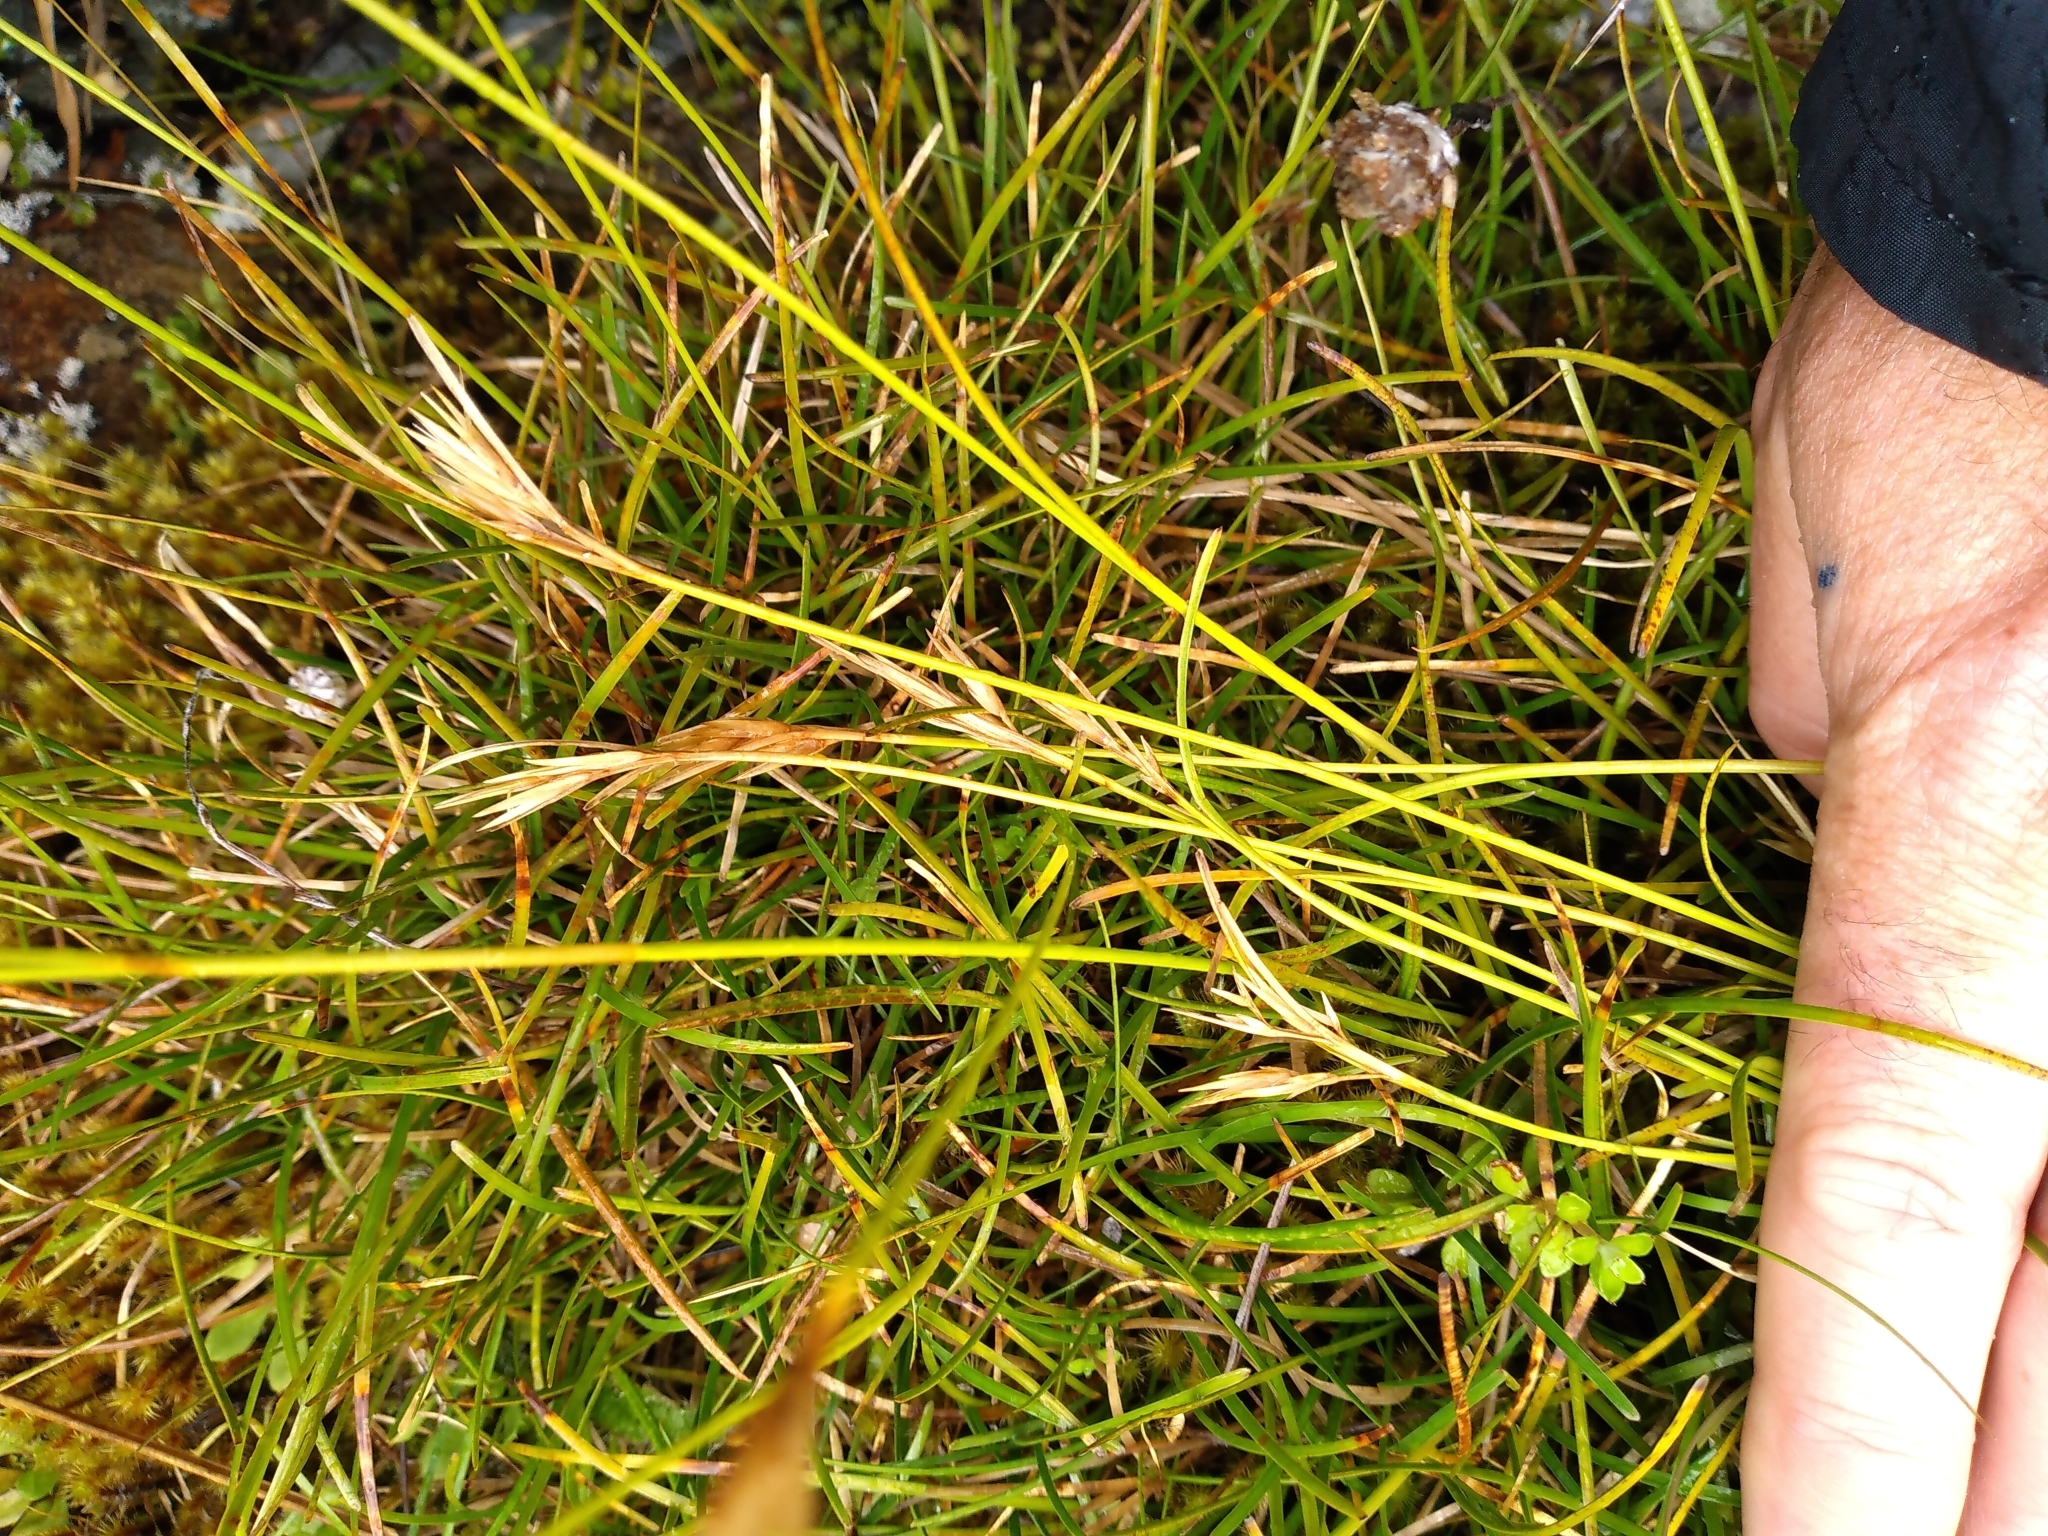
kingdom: Plantae
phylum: Tracheophyta
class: Liliopsida
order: Poales
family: Cyperaceae
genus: Carpha
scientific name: Carpha alpina
